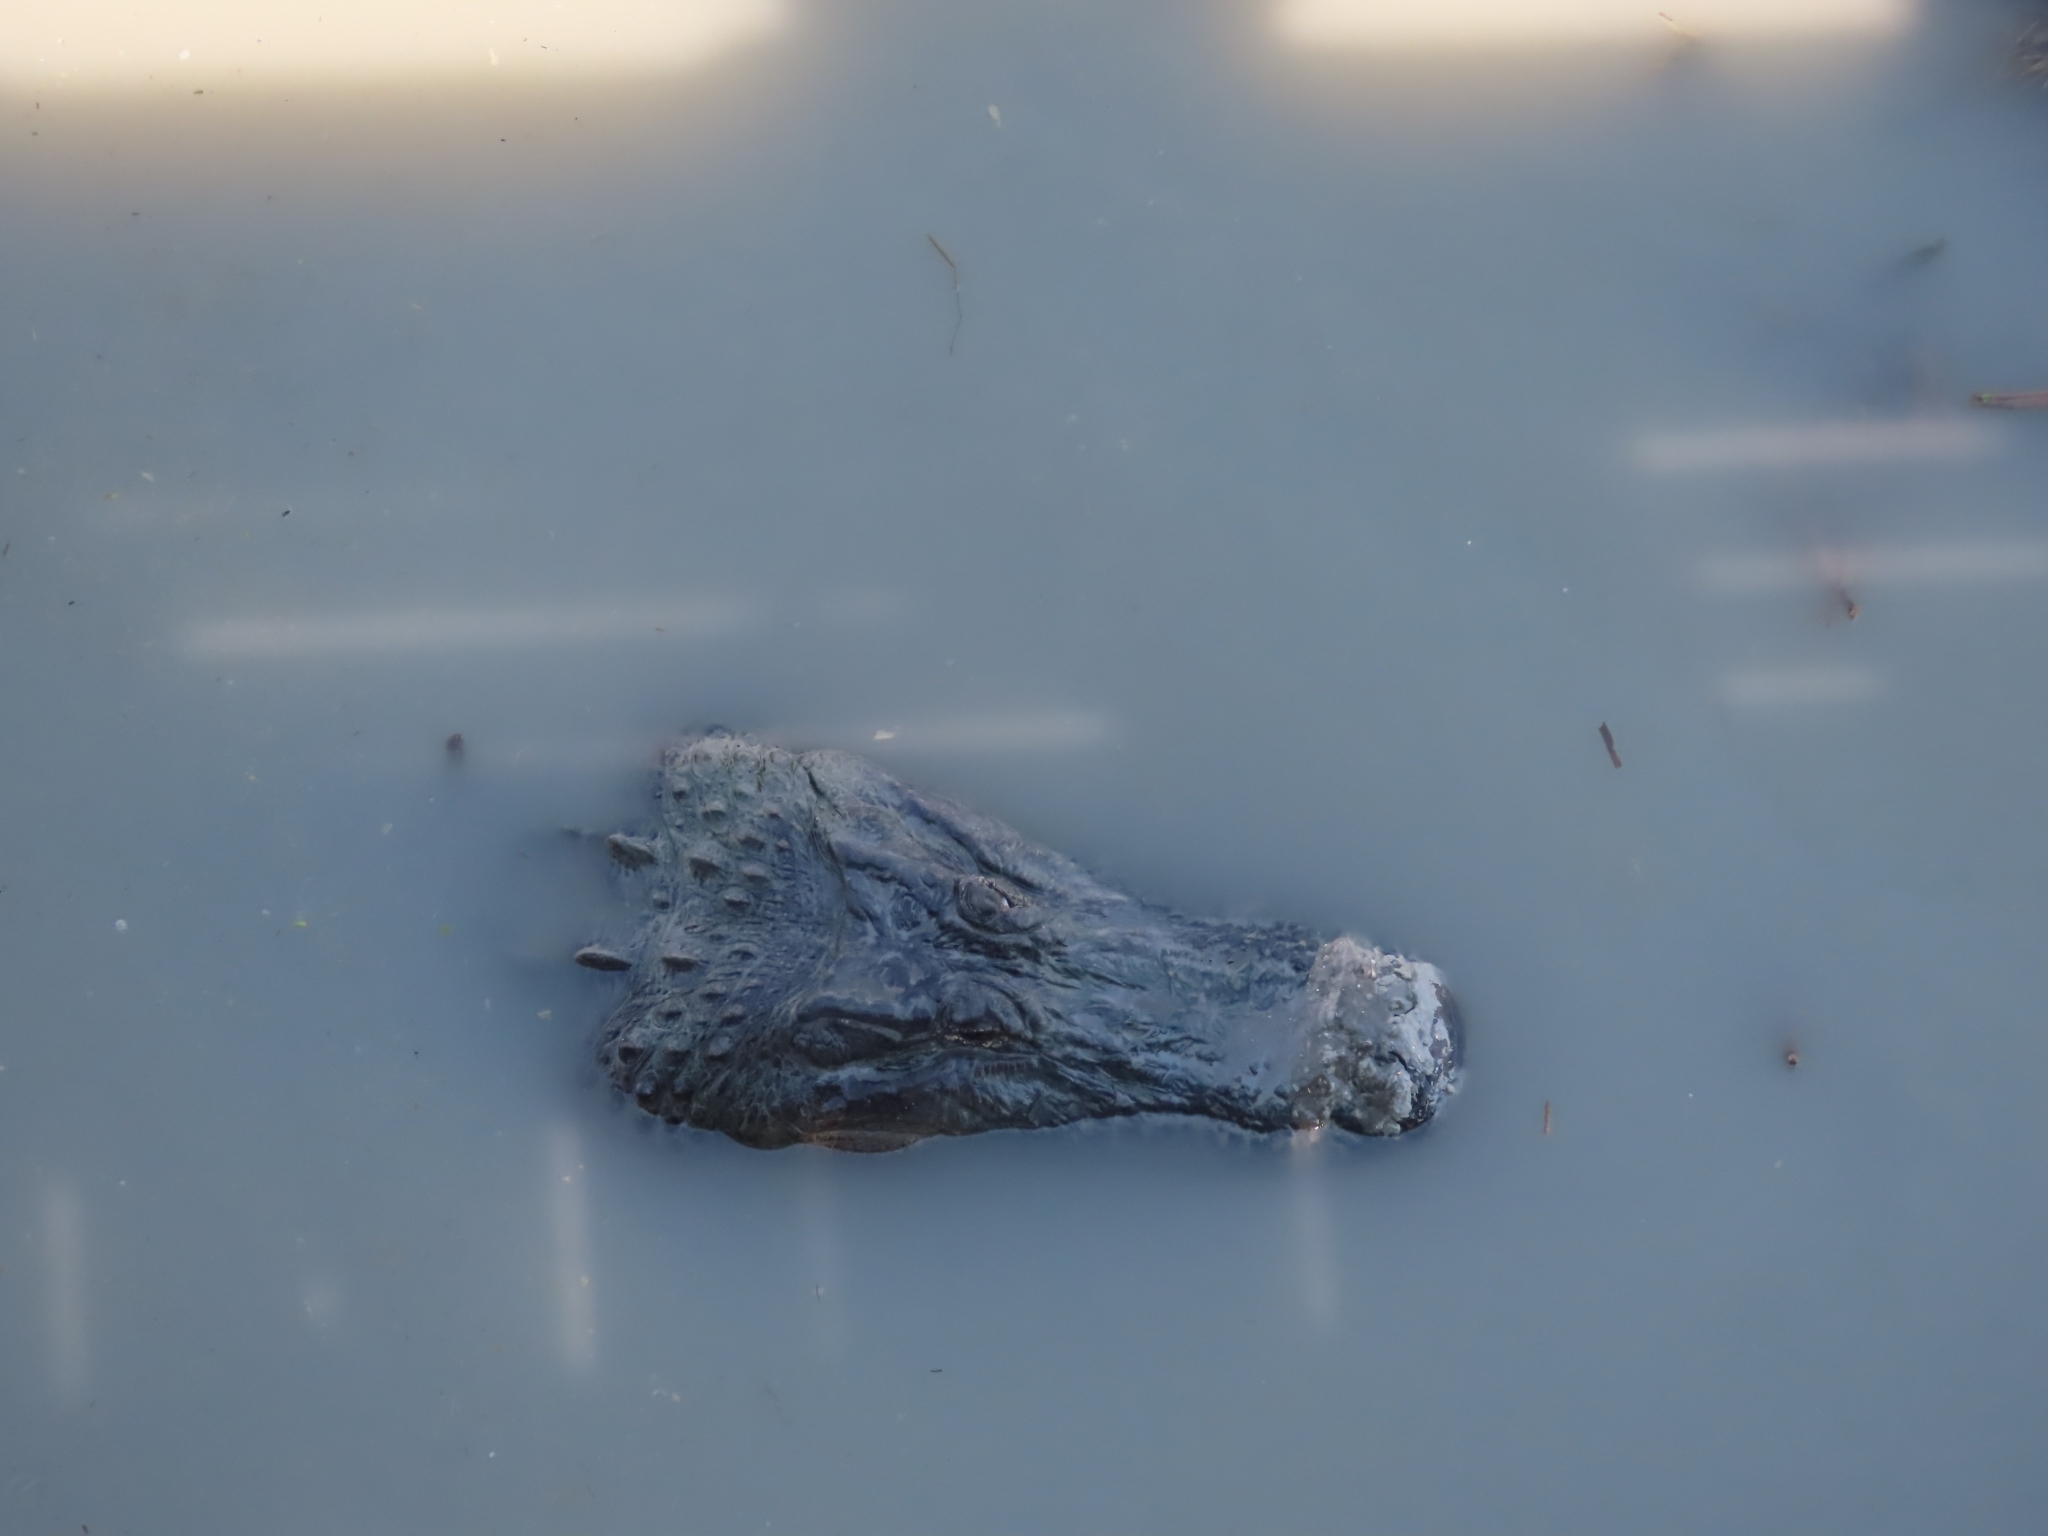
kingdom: Animalia
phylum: Chordata
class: Crocodylia
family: Alligatoridae
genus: Alligator
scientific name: Alligator mississippiensis
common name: American alligator
